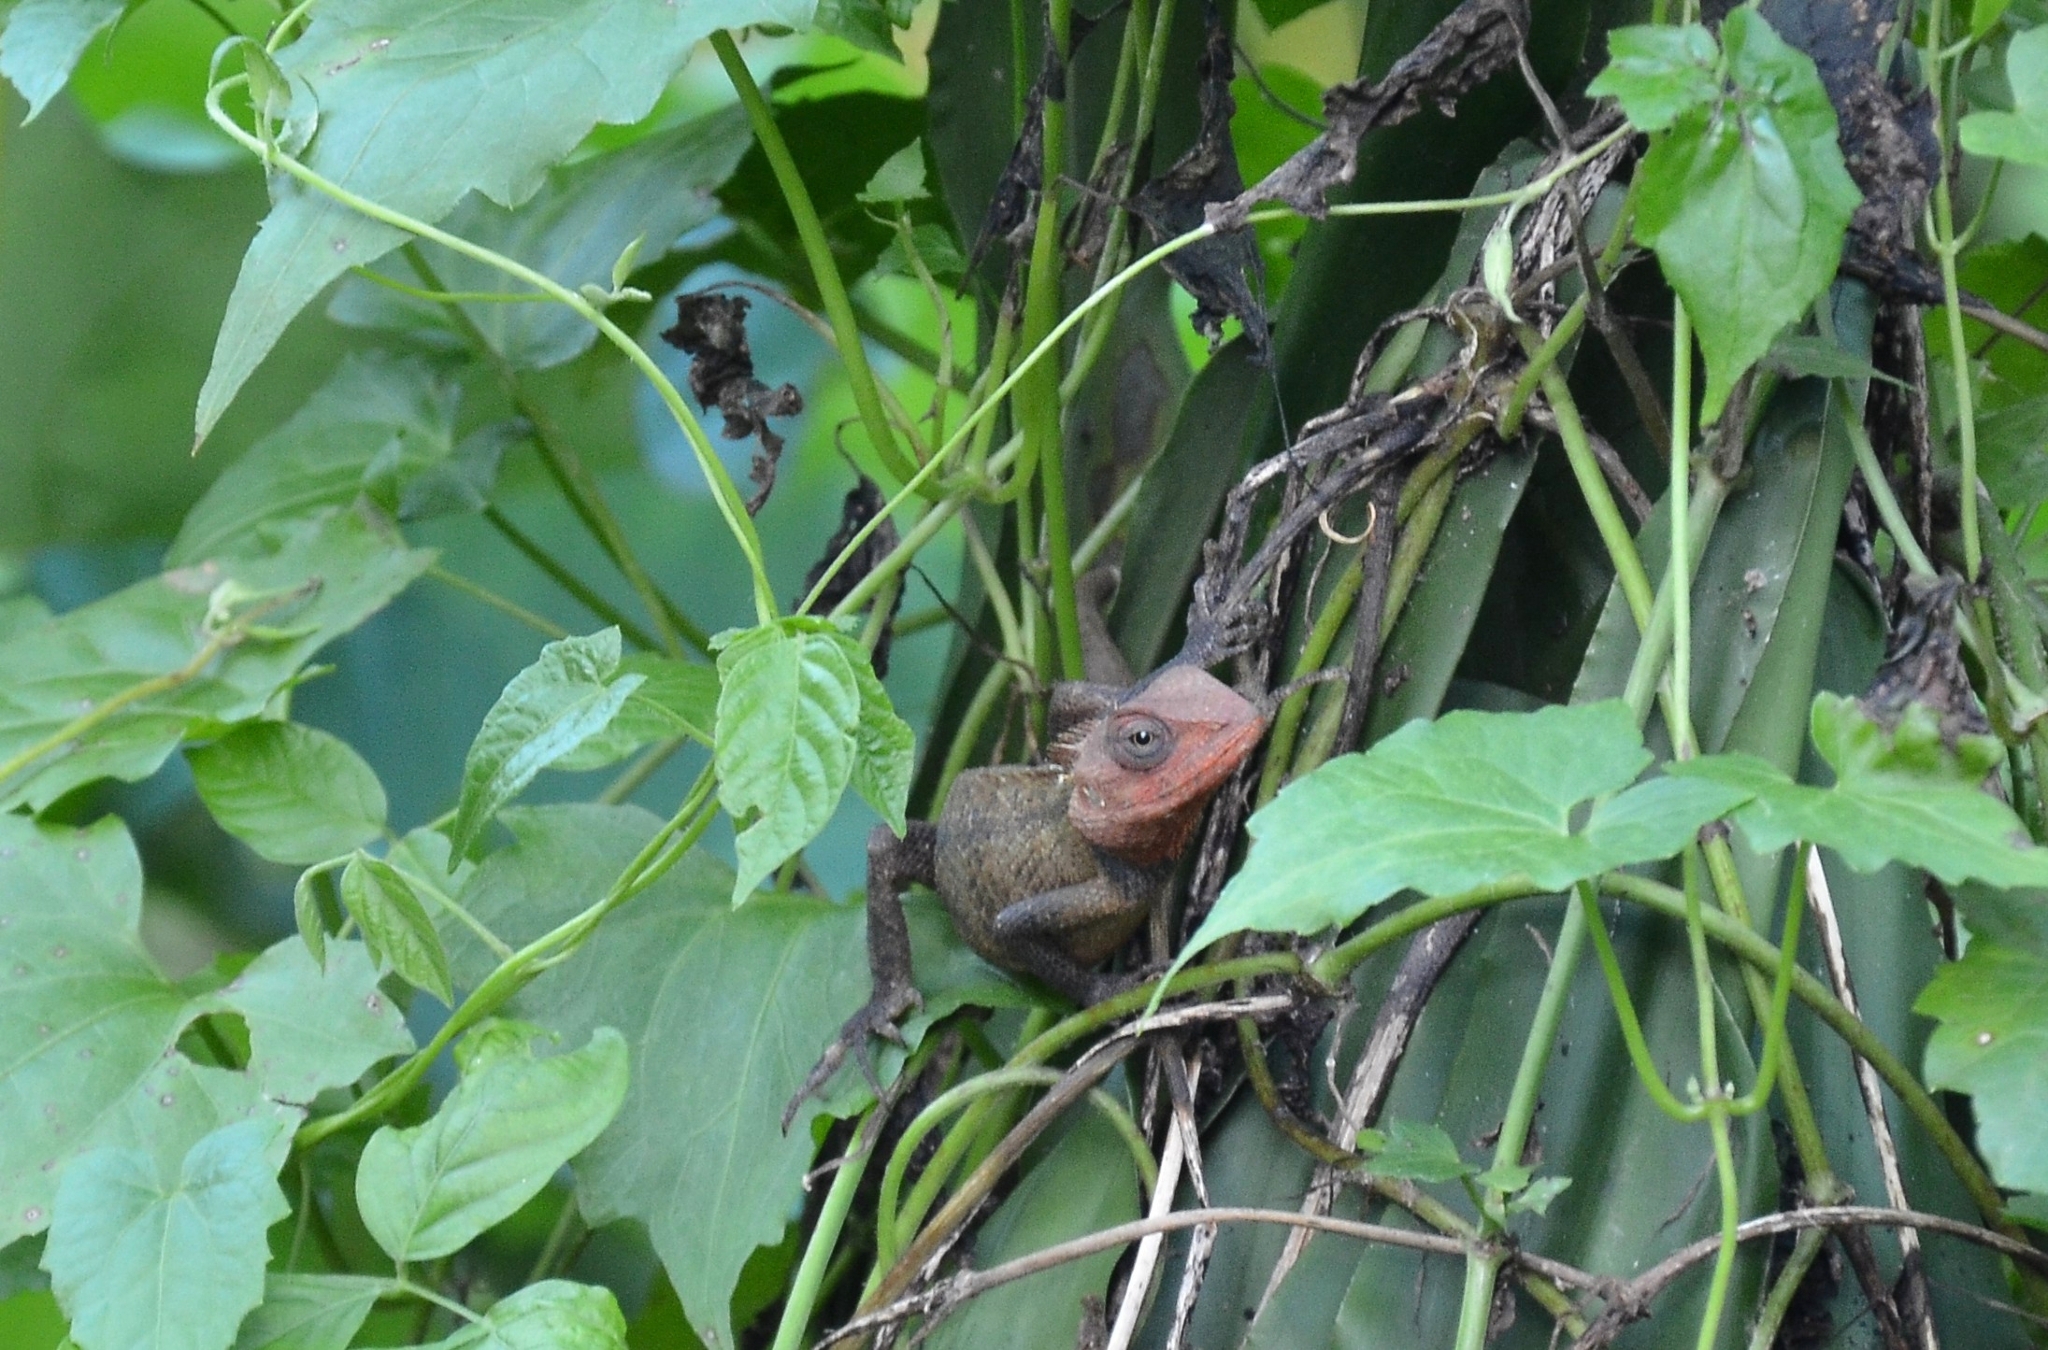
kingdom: Animalia
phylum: Chordata
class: Squamata
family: Agamidae
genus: Calotes
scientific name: Calotes versicolor
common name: Oriental garden lizard
